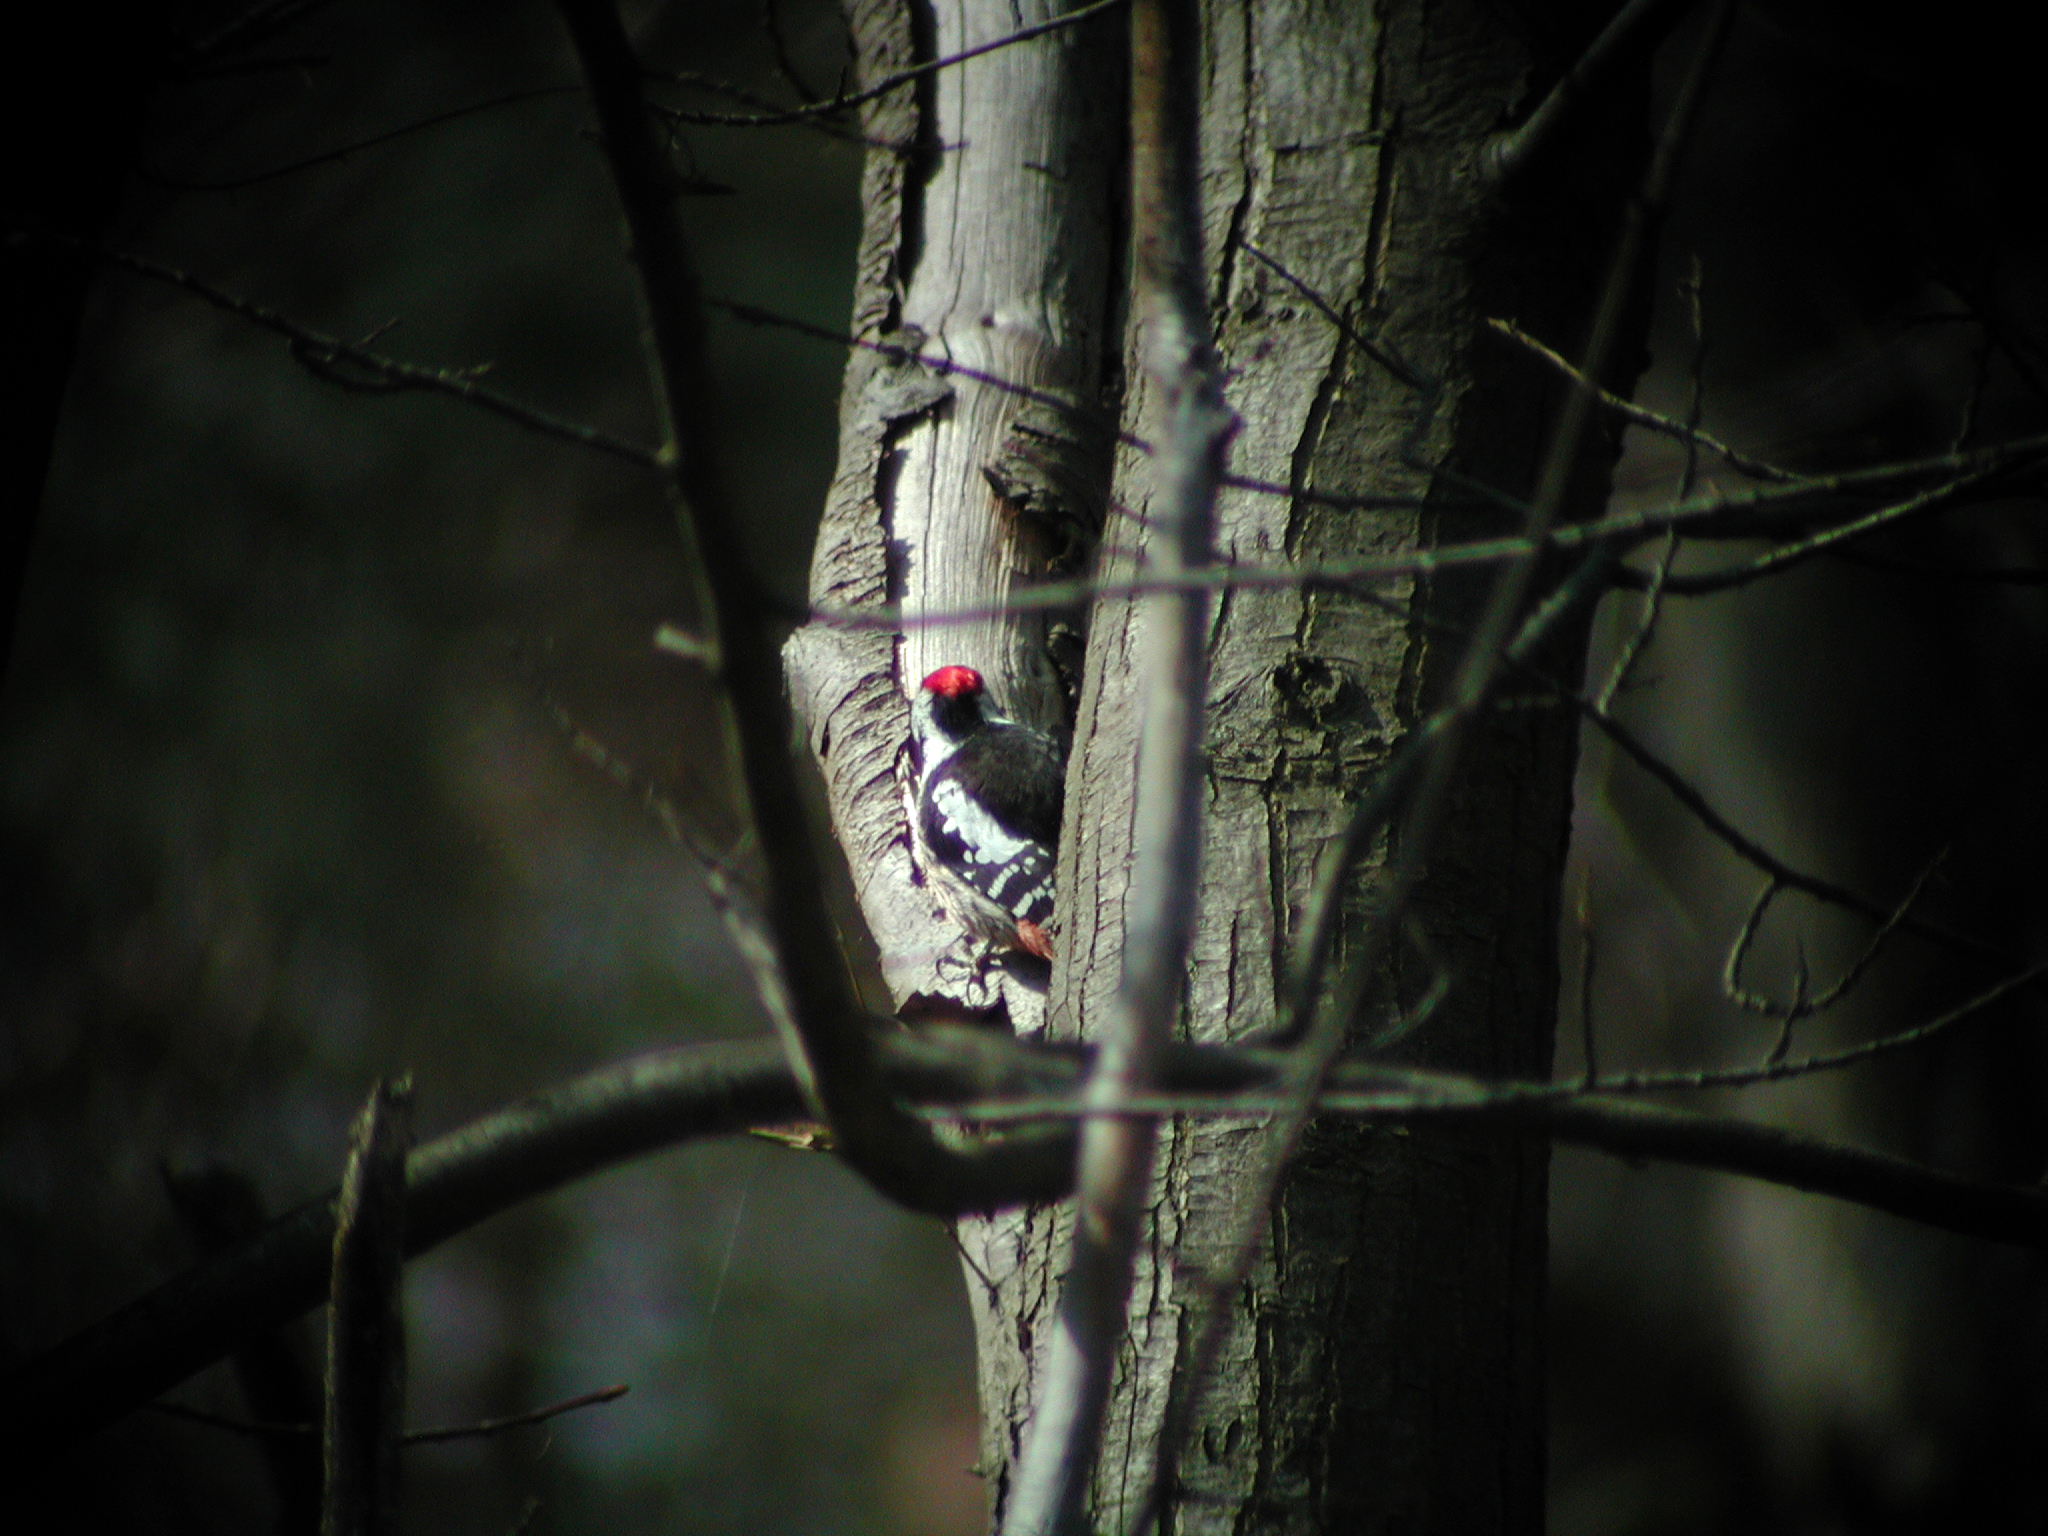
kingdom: Animalia
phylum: Chordata
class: Aves
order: Piciformes
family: Picidae
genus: Dendrocoptes
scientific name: Dendrocoptes medius
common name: Middle spotted woodpecker
